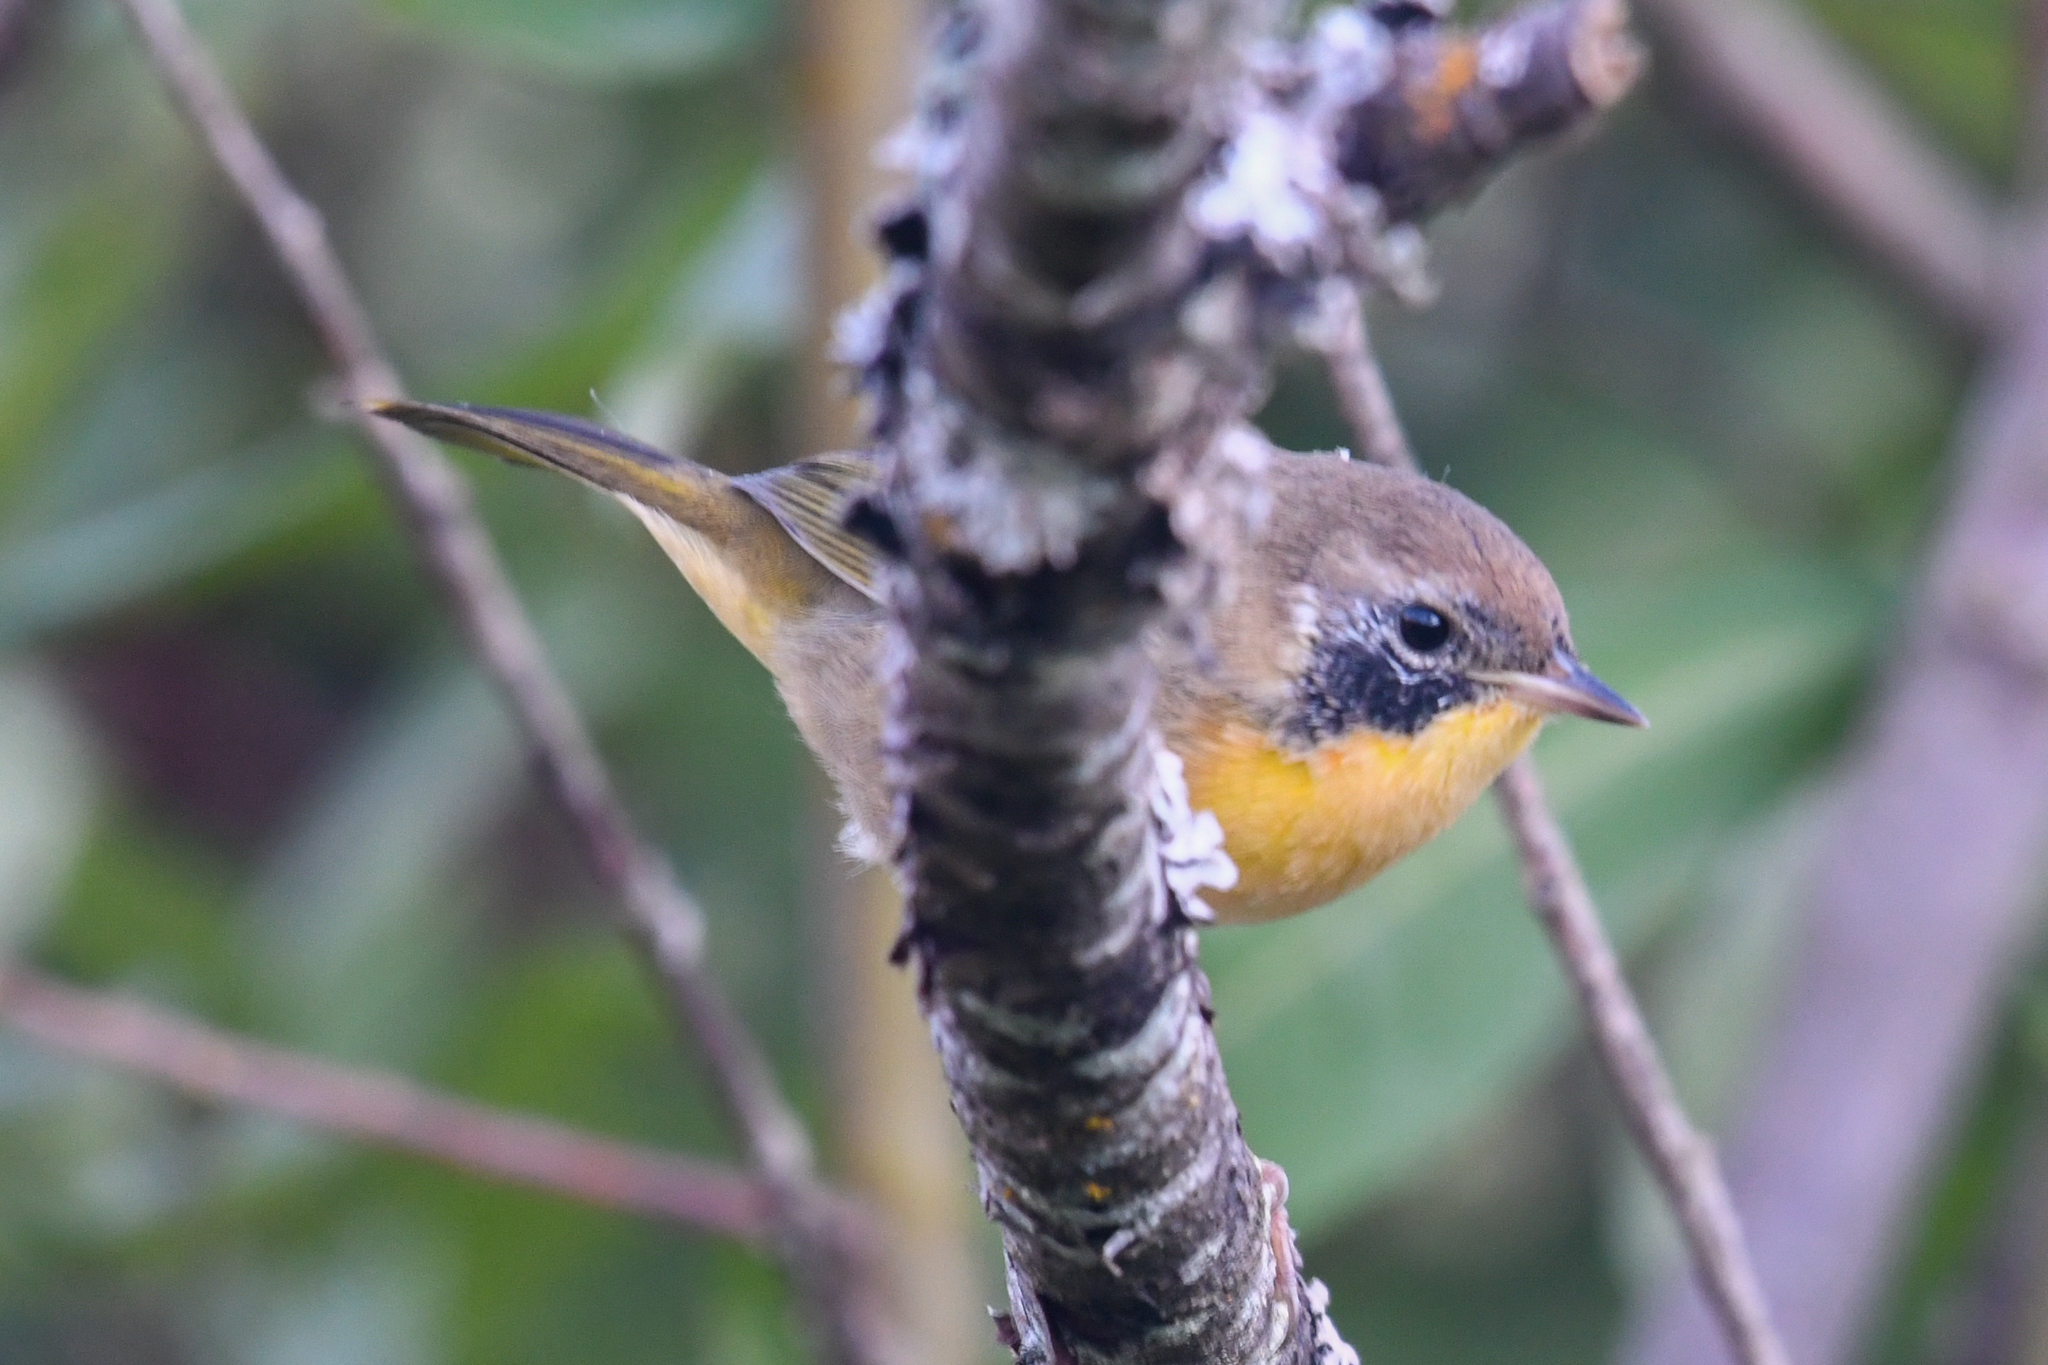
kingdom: Animalia
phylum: Chordata
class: Aves
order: Passeriformes
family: Parulidae
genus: Geothlypis
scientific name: Geothlypis trichas
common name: Common yellowthroat
